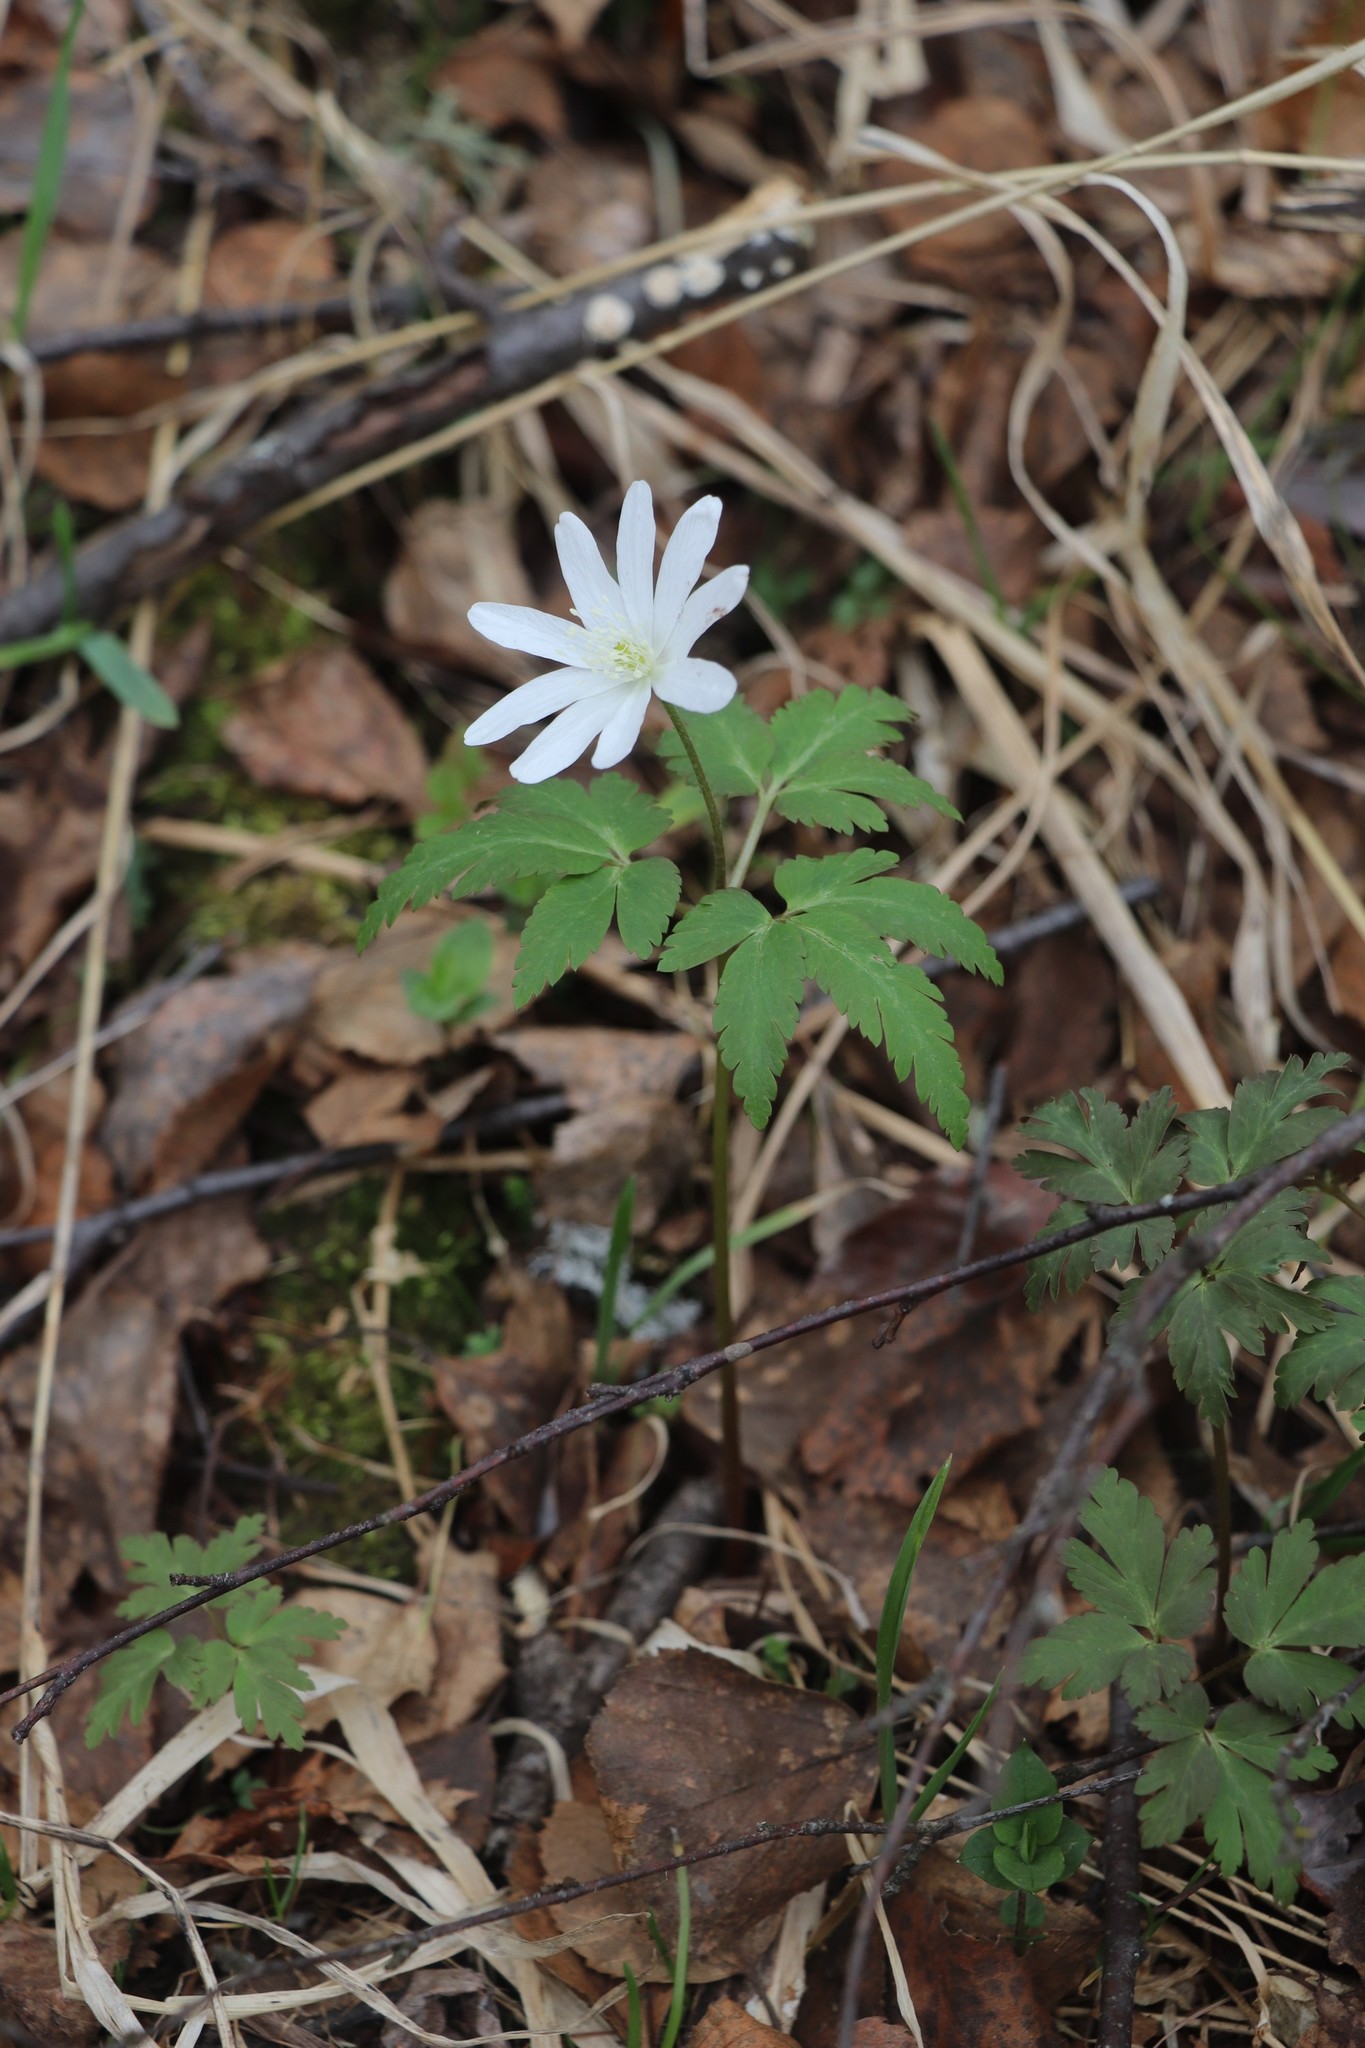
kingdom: Plantae
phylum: Tracheophyta
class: Magnoliopsida
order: Ranunculales
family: Ranunculaceae
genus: Anemone
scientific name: Anemone altaica
